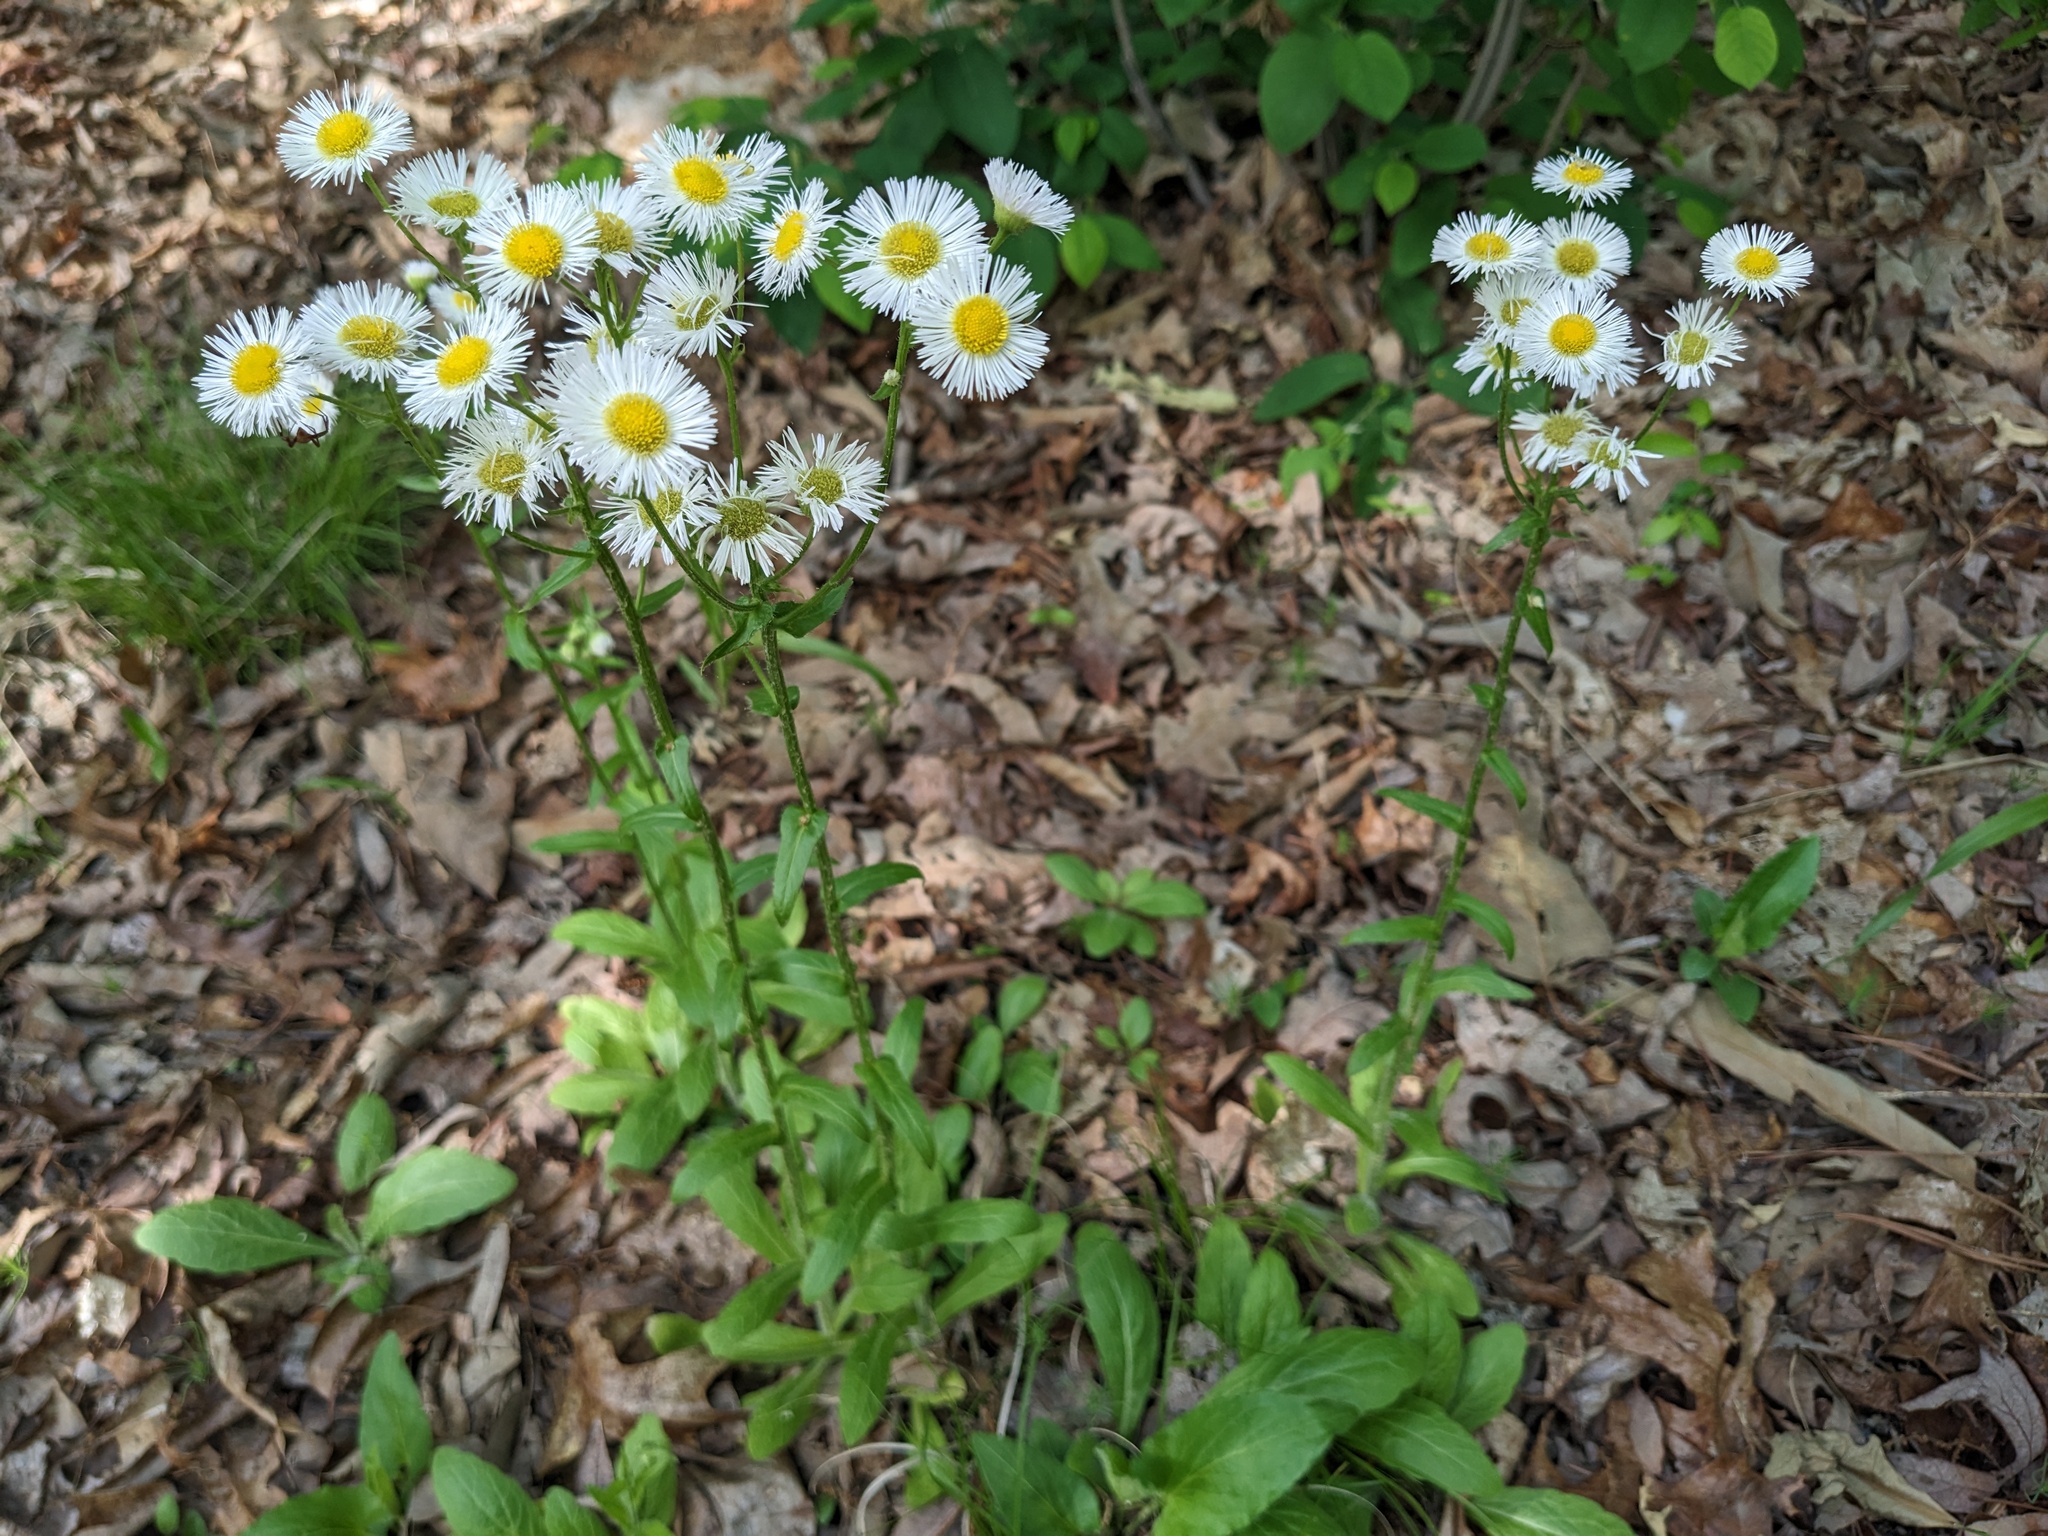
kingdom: Plantae
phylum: Tracheophyta
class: Magnoliopsida
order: Asterales
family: Asteraceae
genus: Erigeron
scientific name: Erigeron philadelphicus
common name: Robin's-plantain
